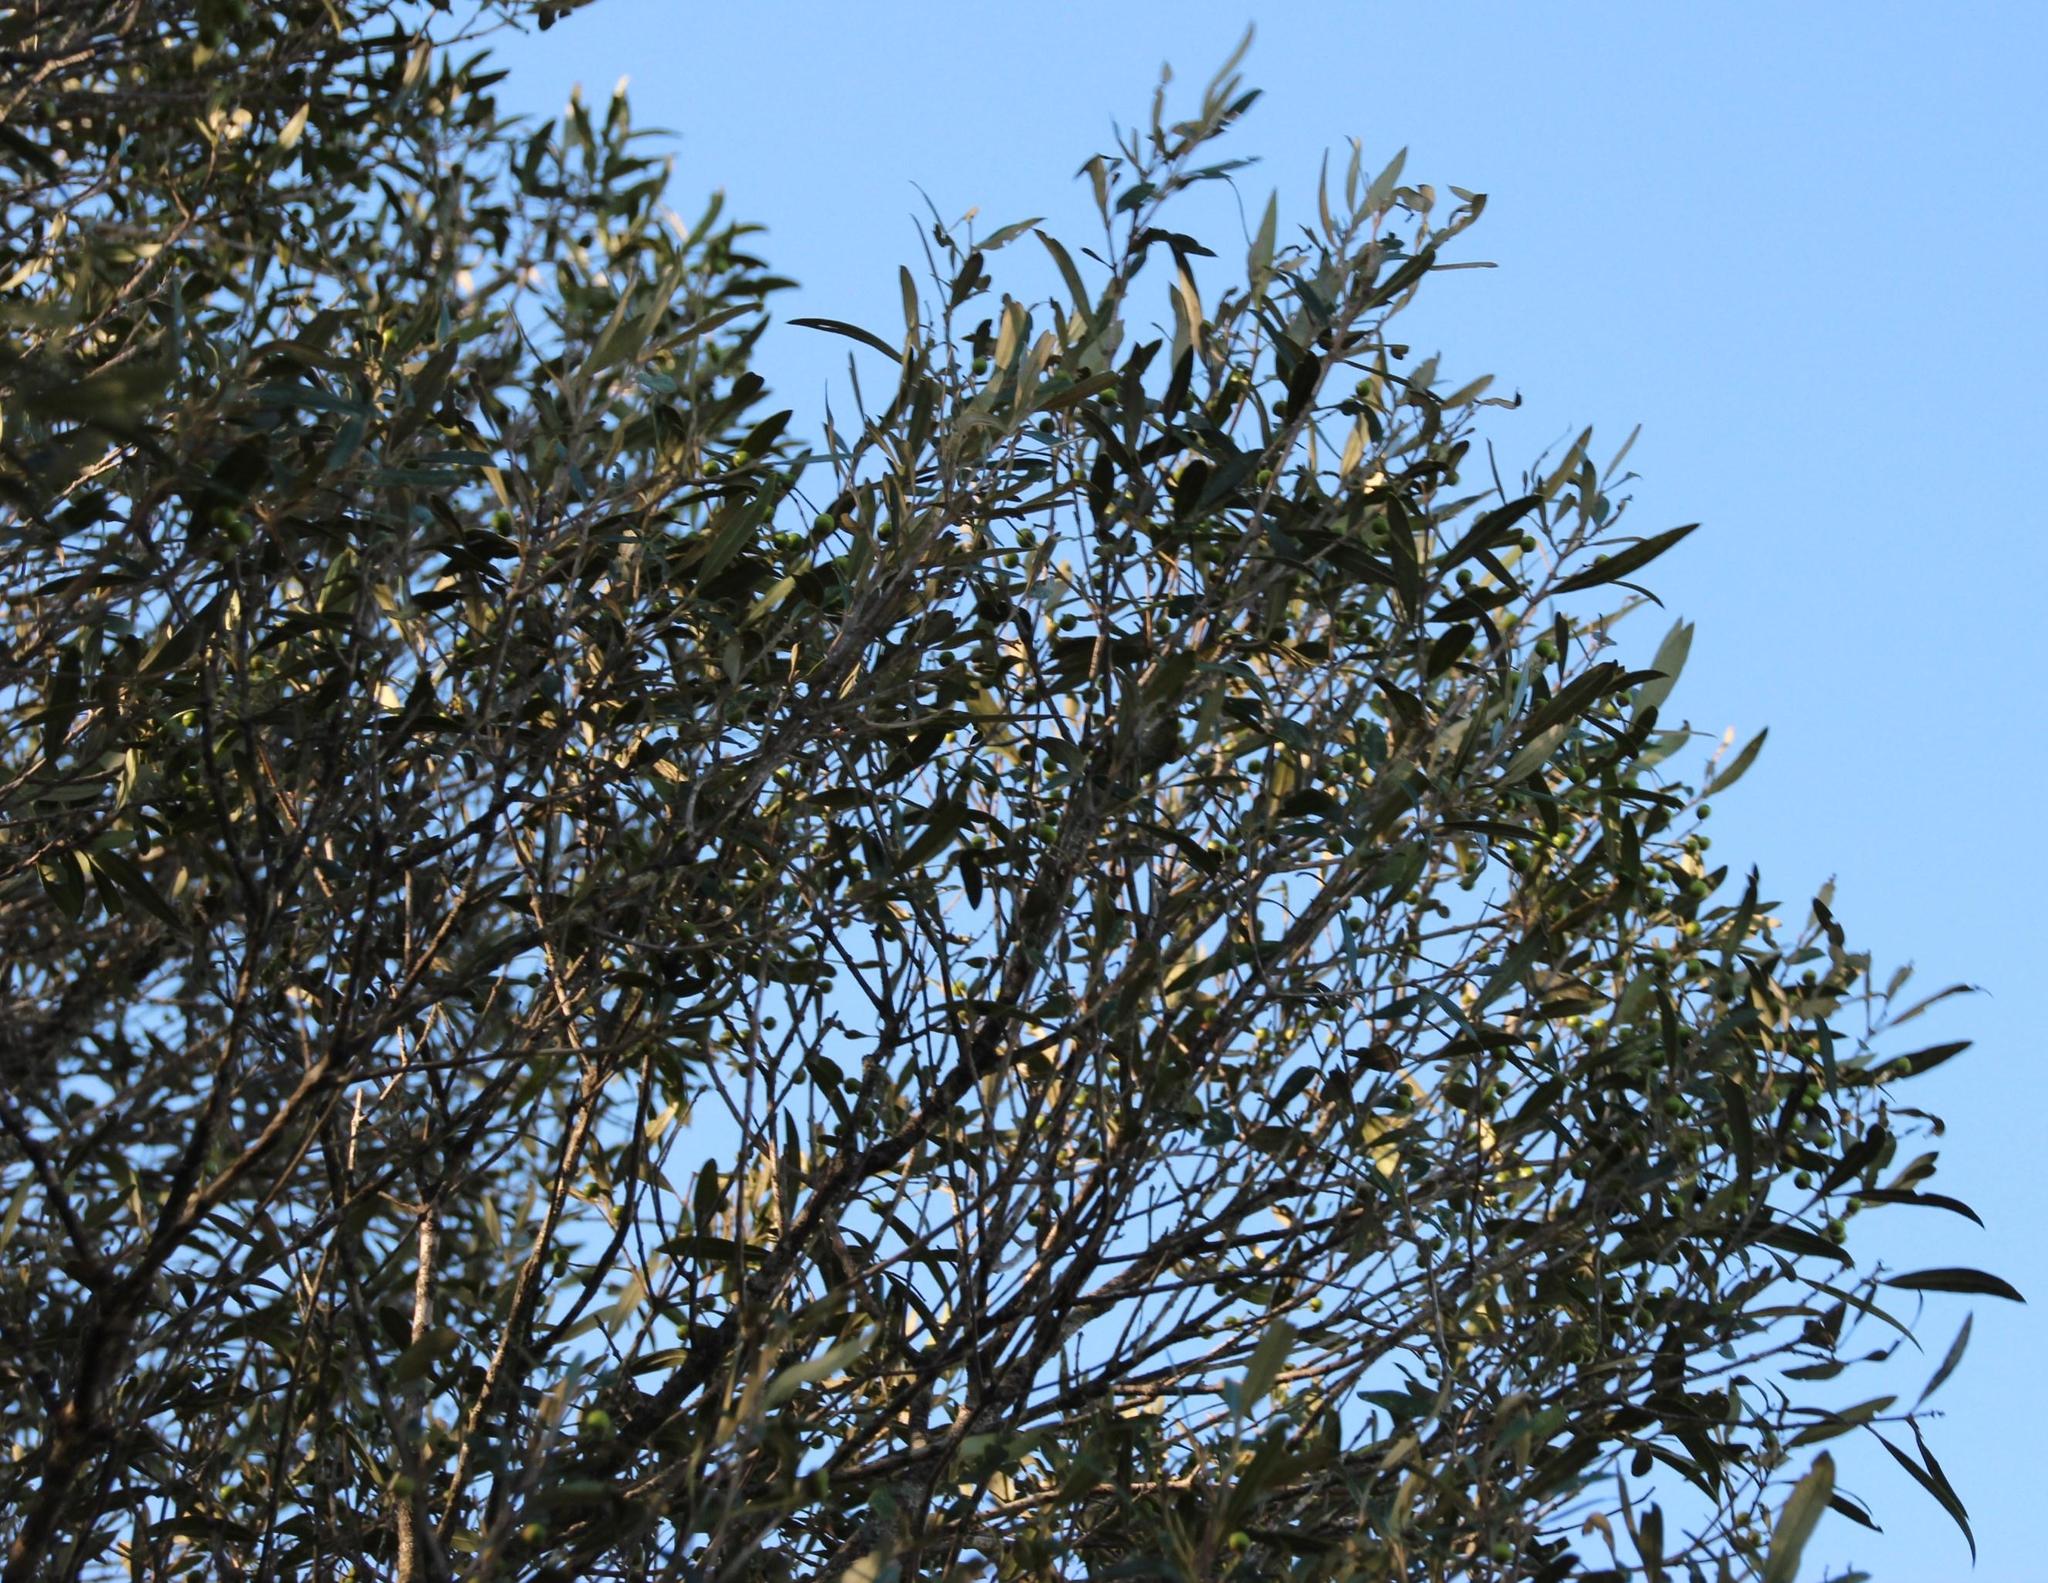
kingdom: Plantae
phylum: Tracheophyta
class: Magnoliopsida
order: Lamiales
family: Oleaceae
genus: Olea
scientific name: Olea europaea
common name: Olive
